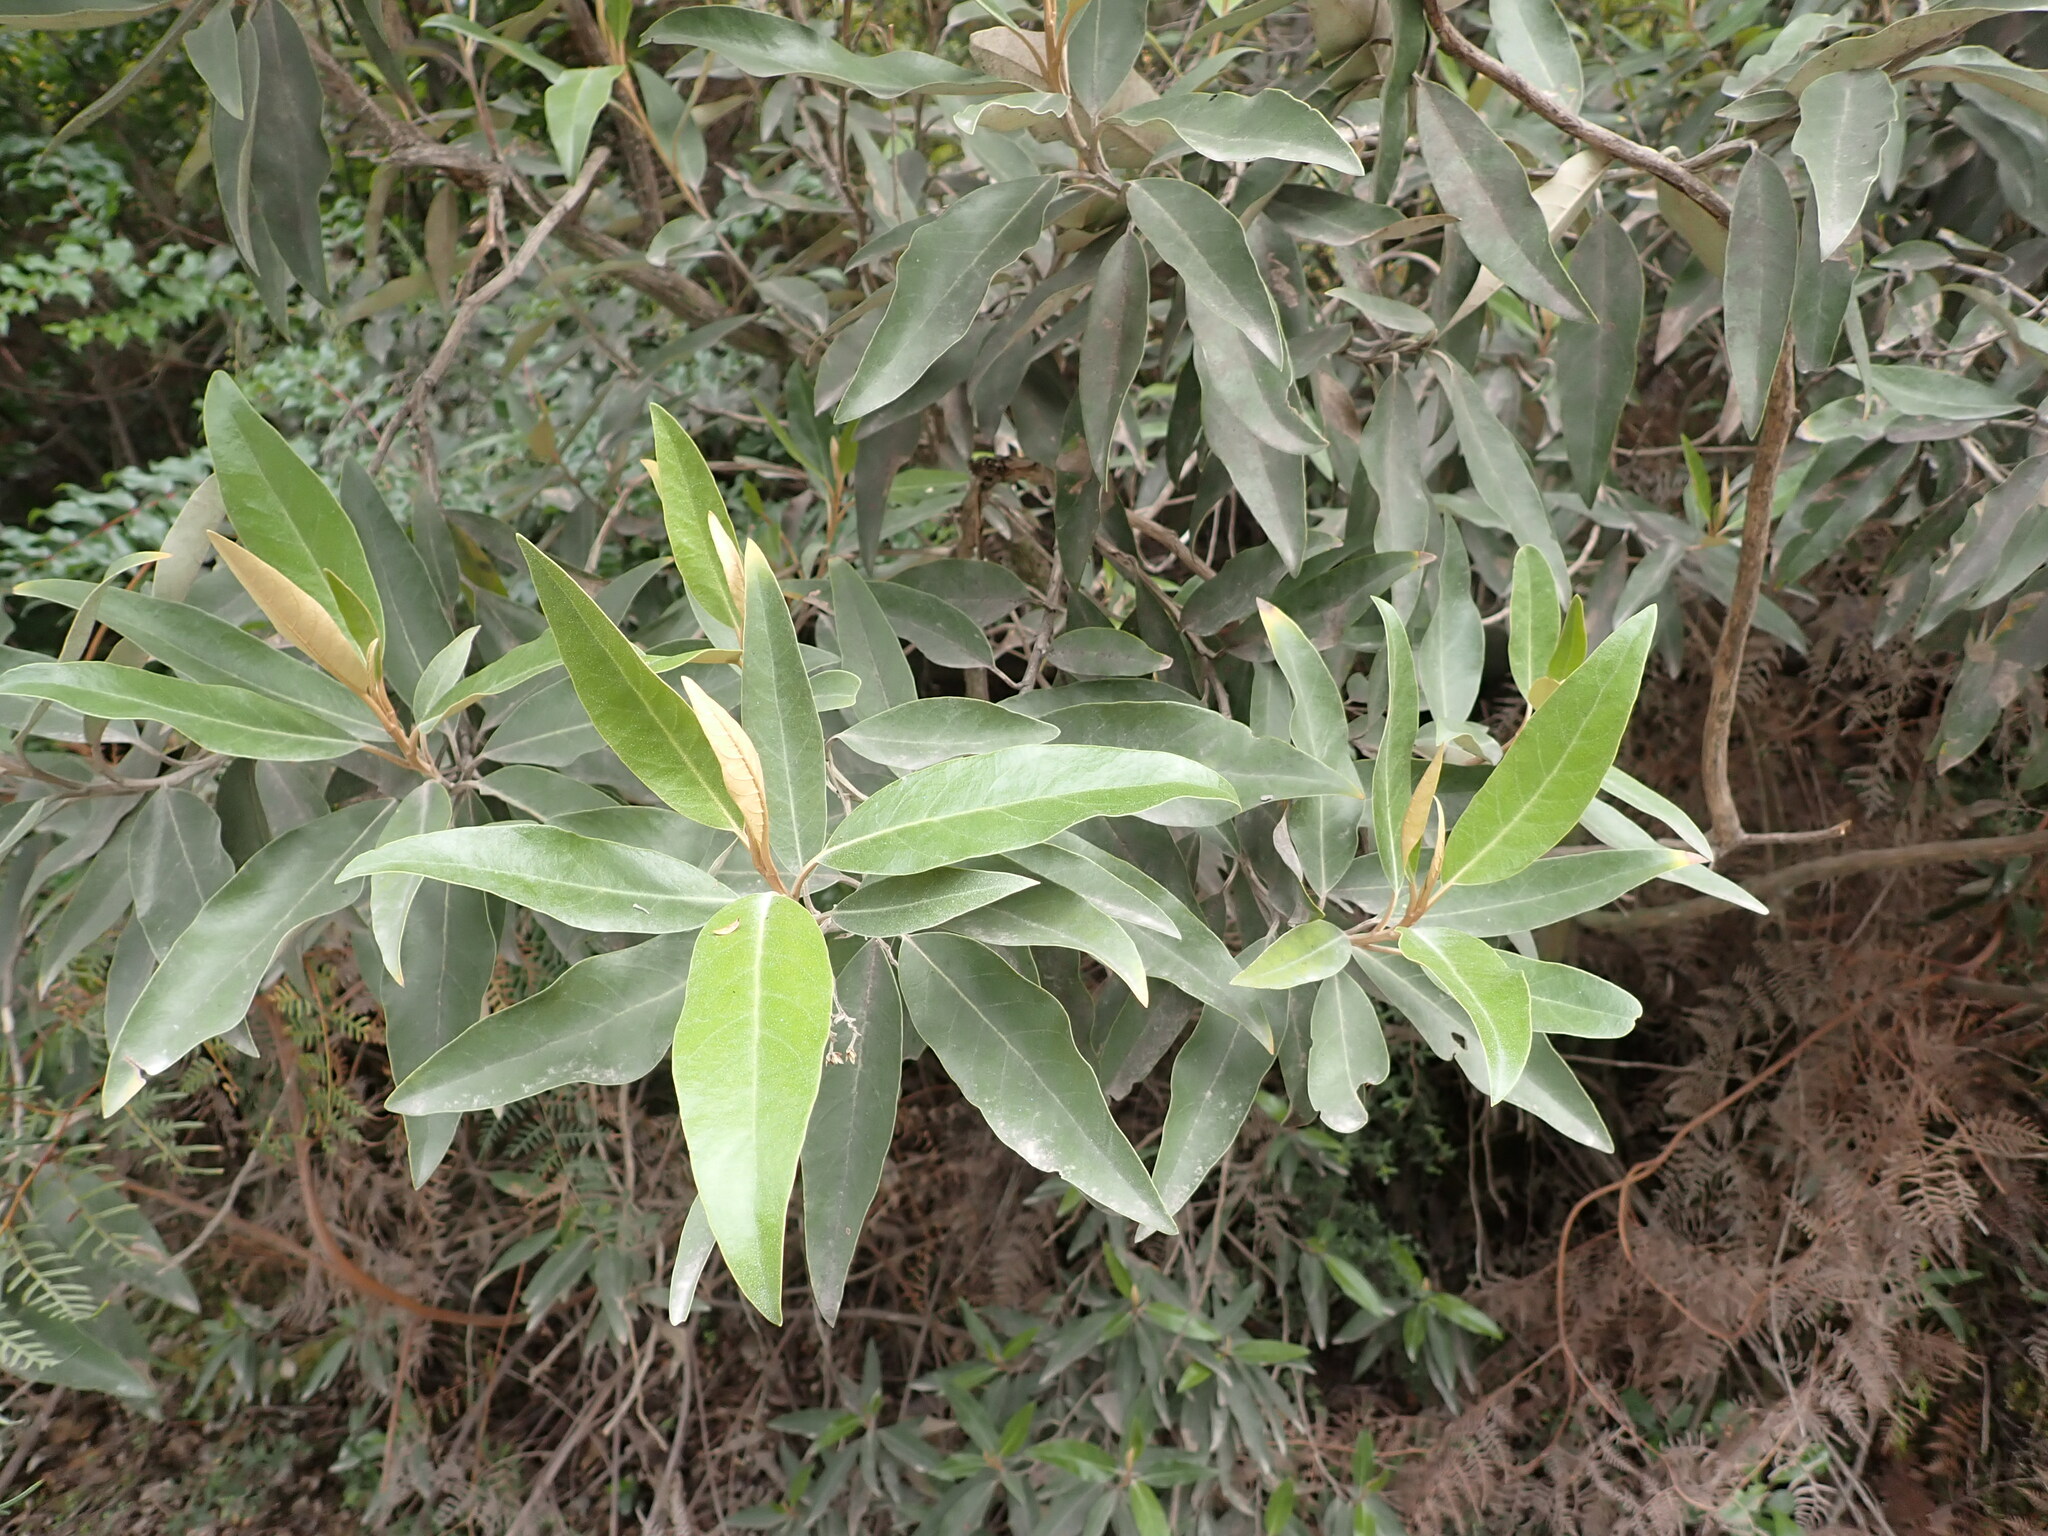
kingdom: Plantae
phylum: Tracheophyta
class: Magnoliopsida
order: Asterales
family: Asteraceae
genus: Olearia
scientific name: Olearia avicenniifolia
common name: Mangrove-leaf daisybush
